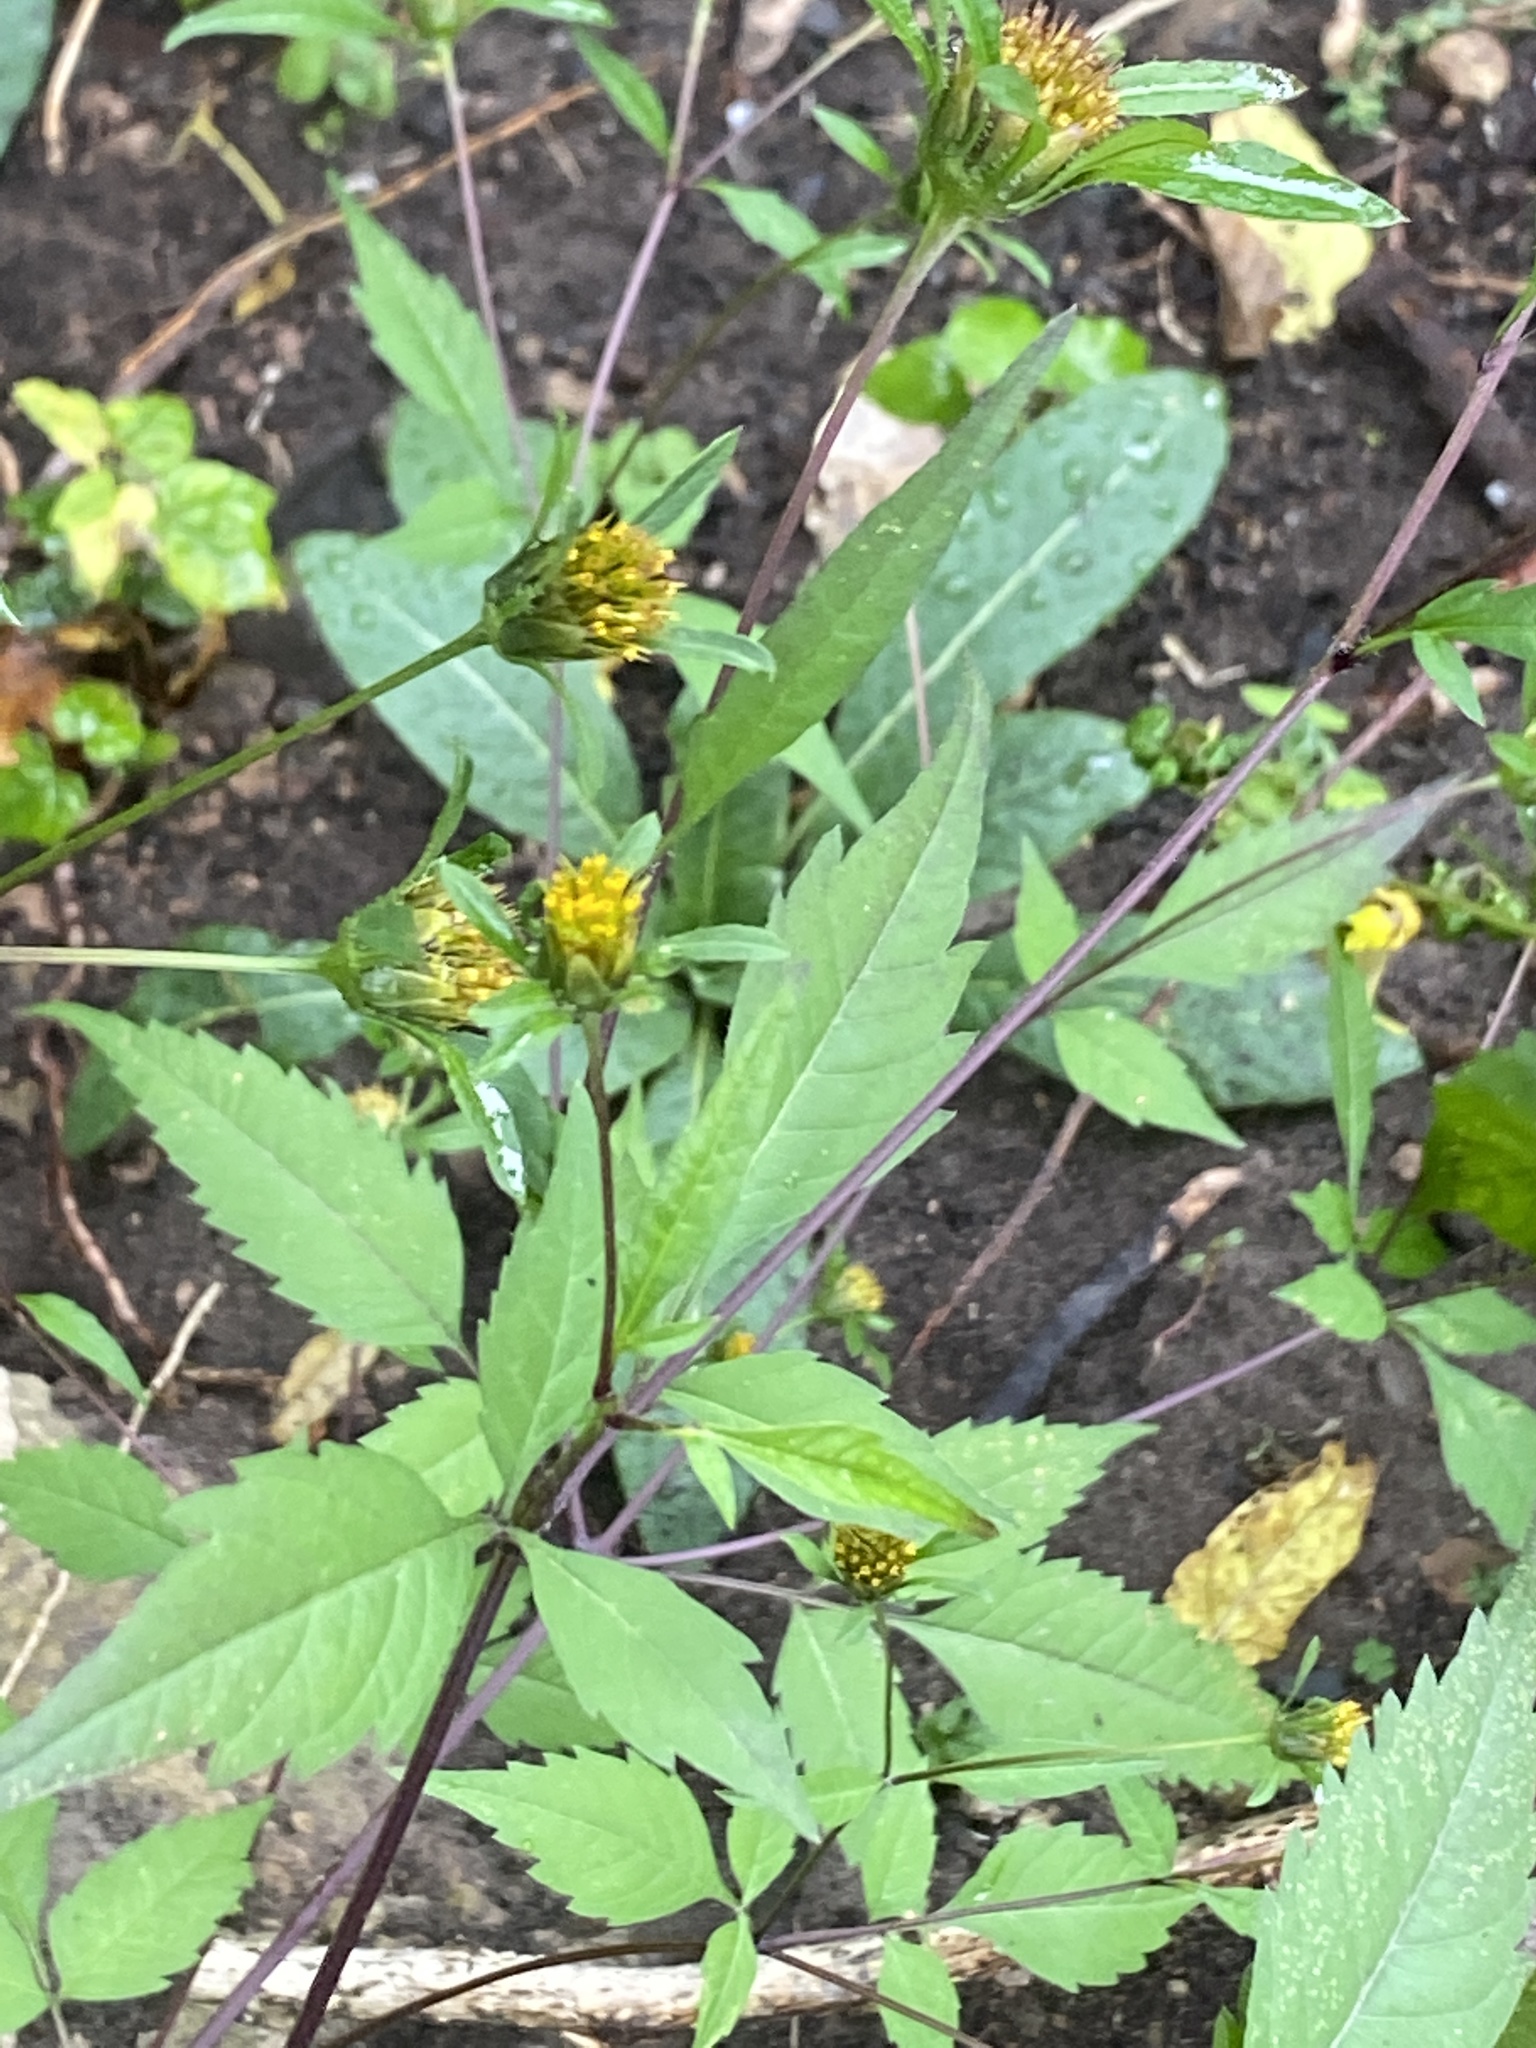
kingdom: Plantae
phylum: Tracheophyta
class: Magnoliopsida
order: Asterales
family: Asteraceae
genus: Bidens
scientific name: Bidens frondosa
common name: Beggarticks
